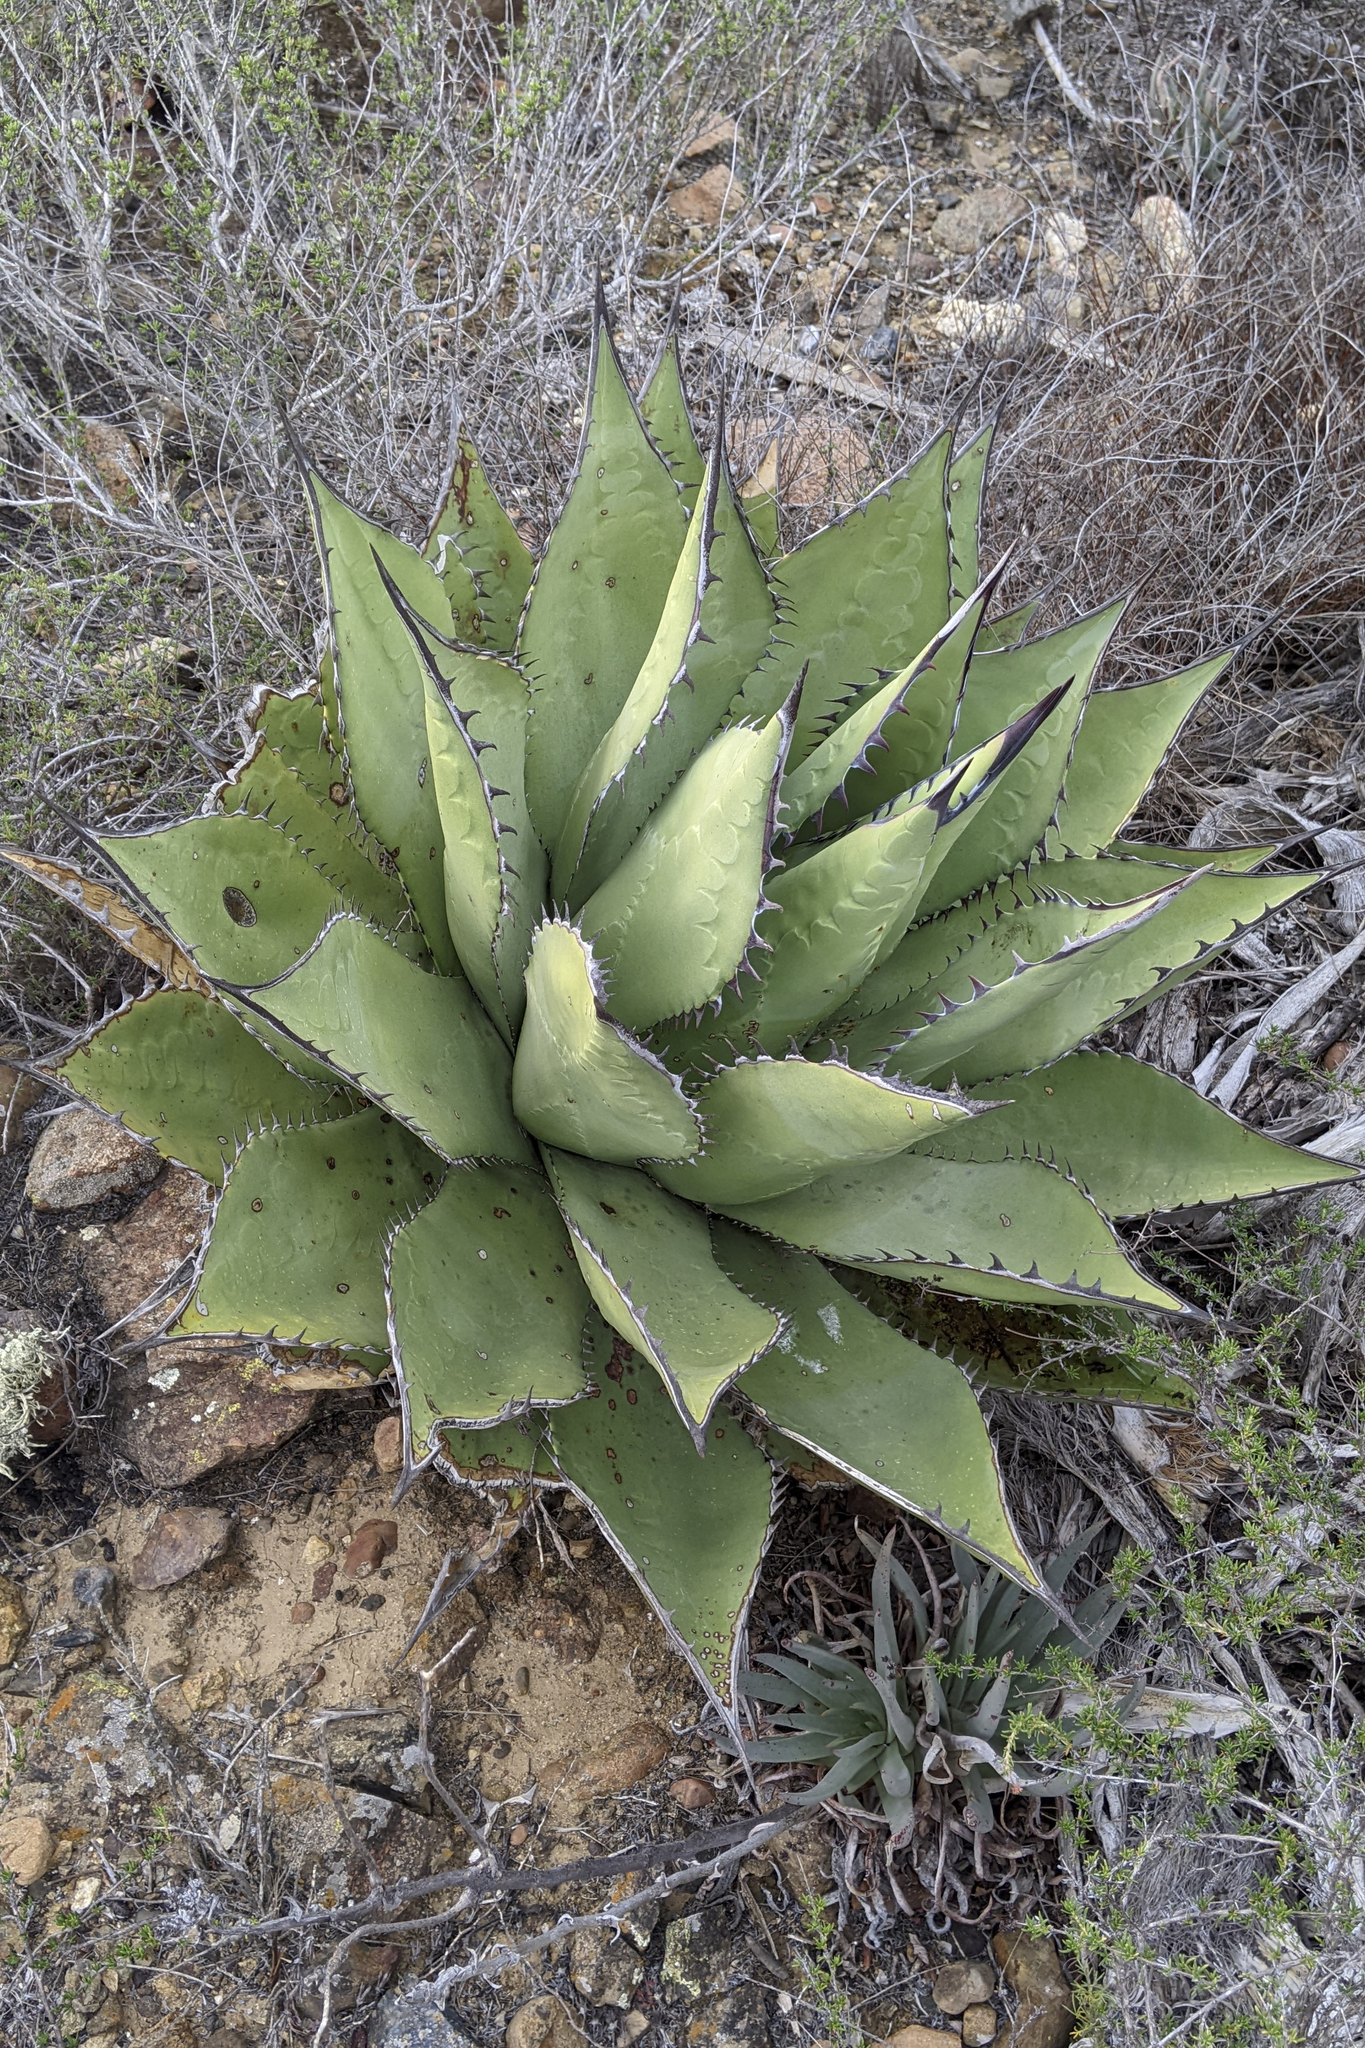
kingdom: Plantae
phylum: Tracheophyta
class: Liliopsida
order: Asparagales
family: Asparagaceae
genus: Agave
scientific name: Agave shawii
